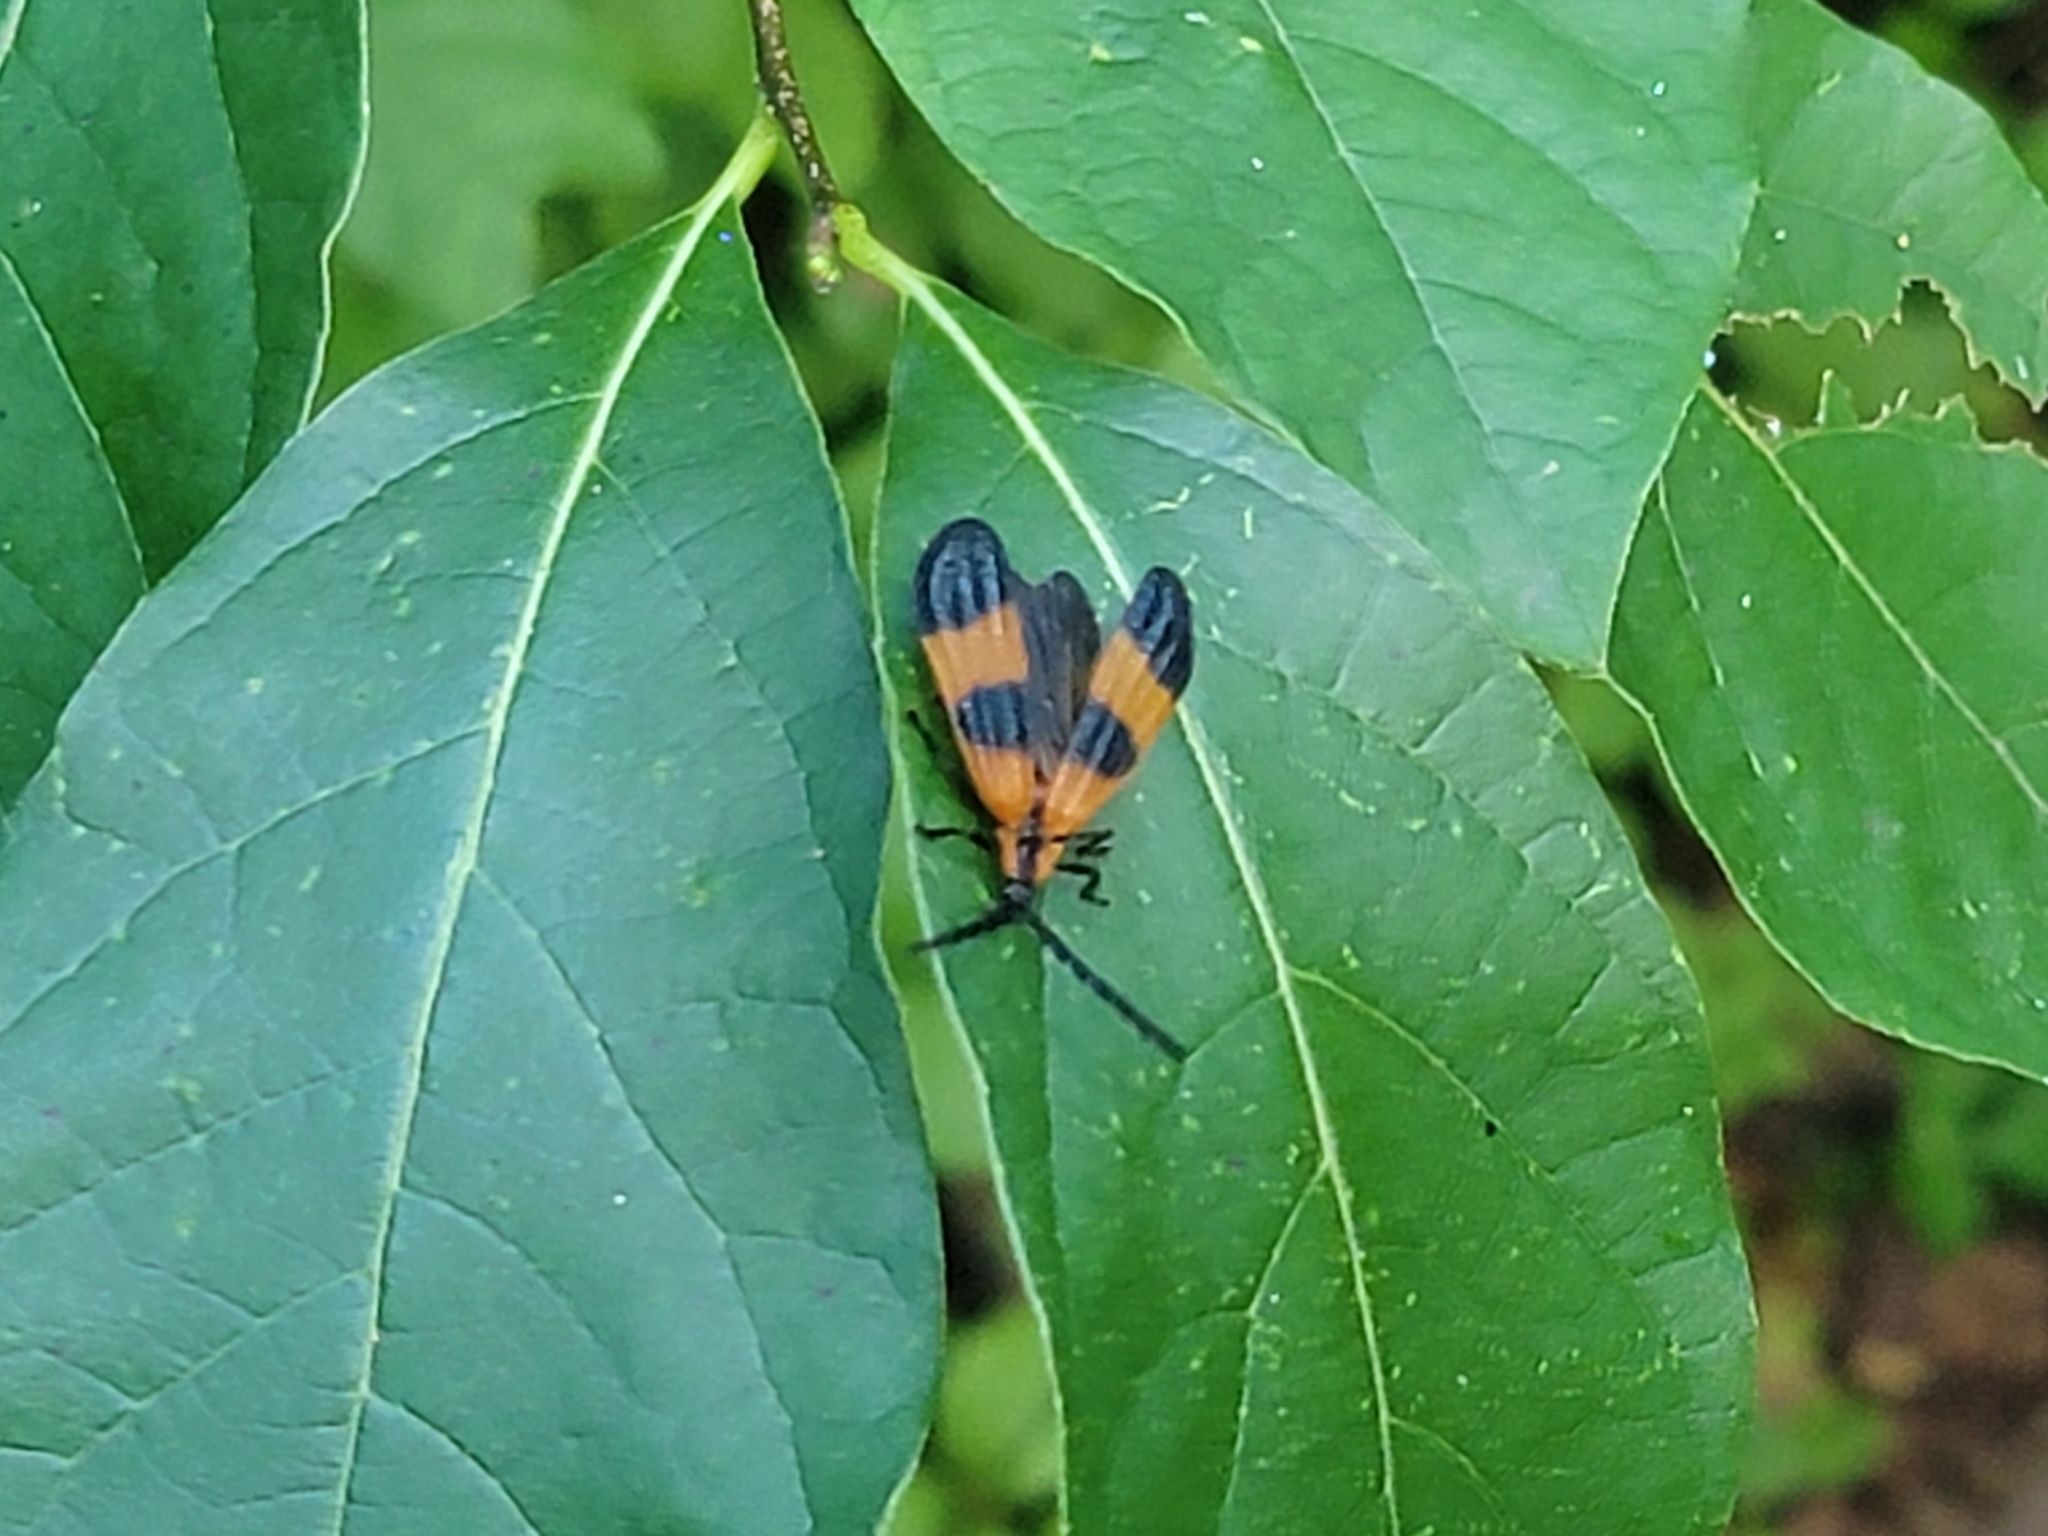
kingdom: Animalia
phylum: Arthropoda
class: Insecta
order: Coleoptera
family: Lycidae
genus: Calopteron
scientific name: Calopteron terminale
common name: End band net-winged beetle
